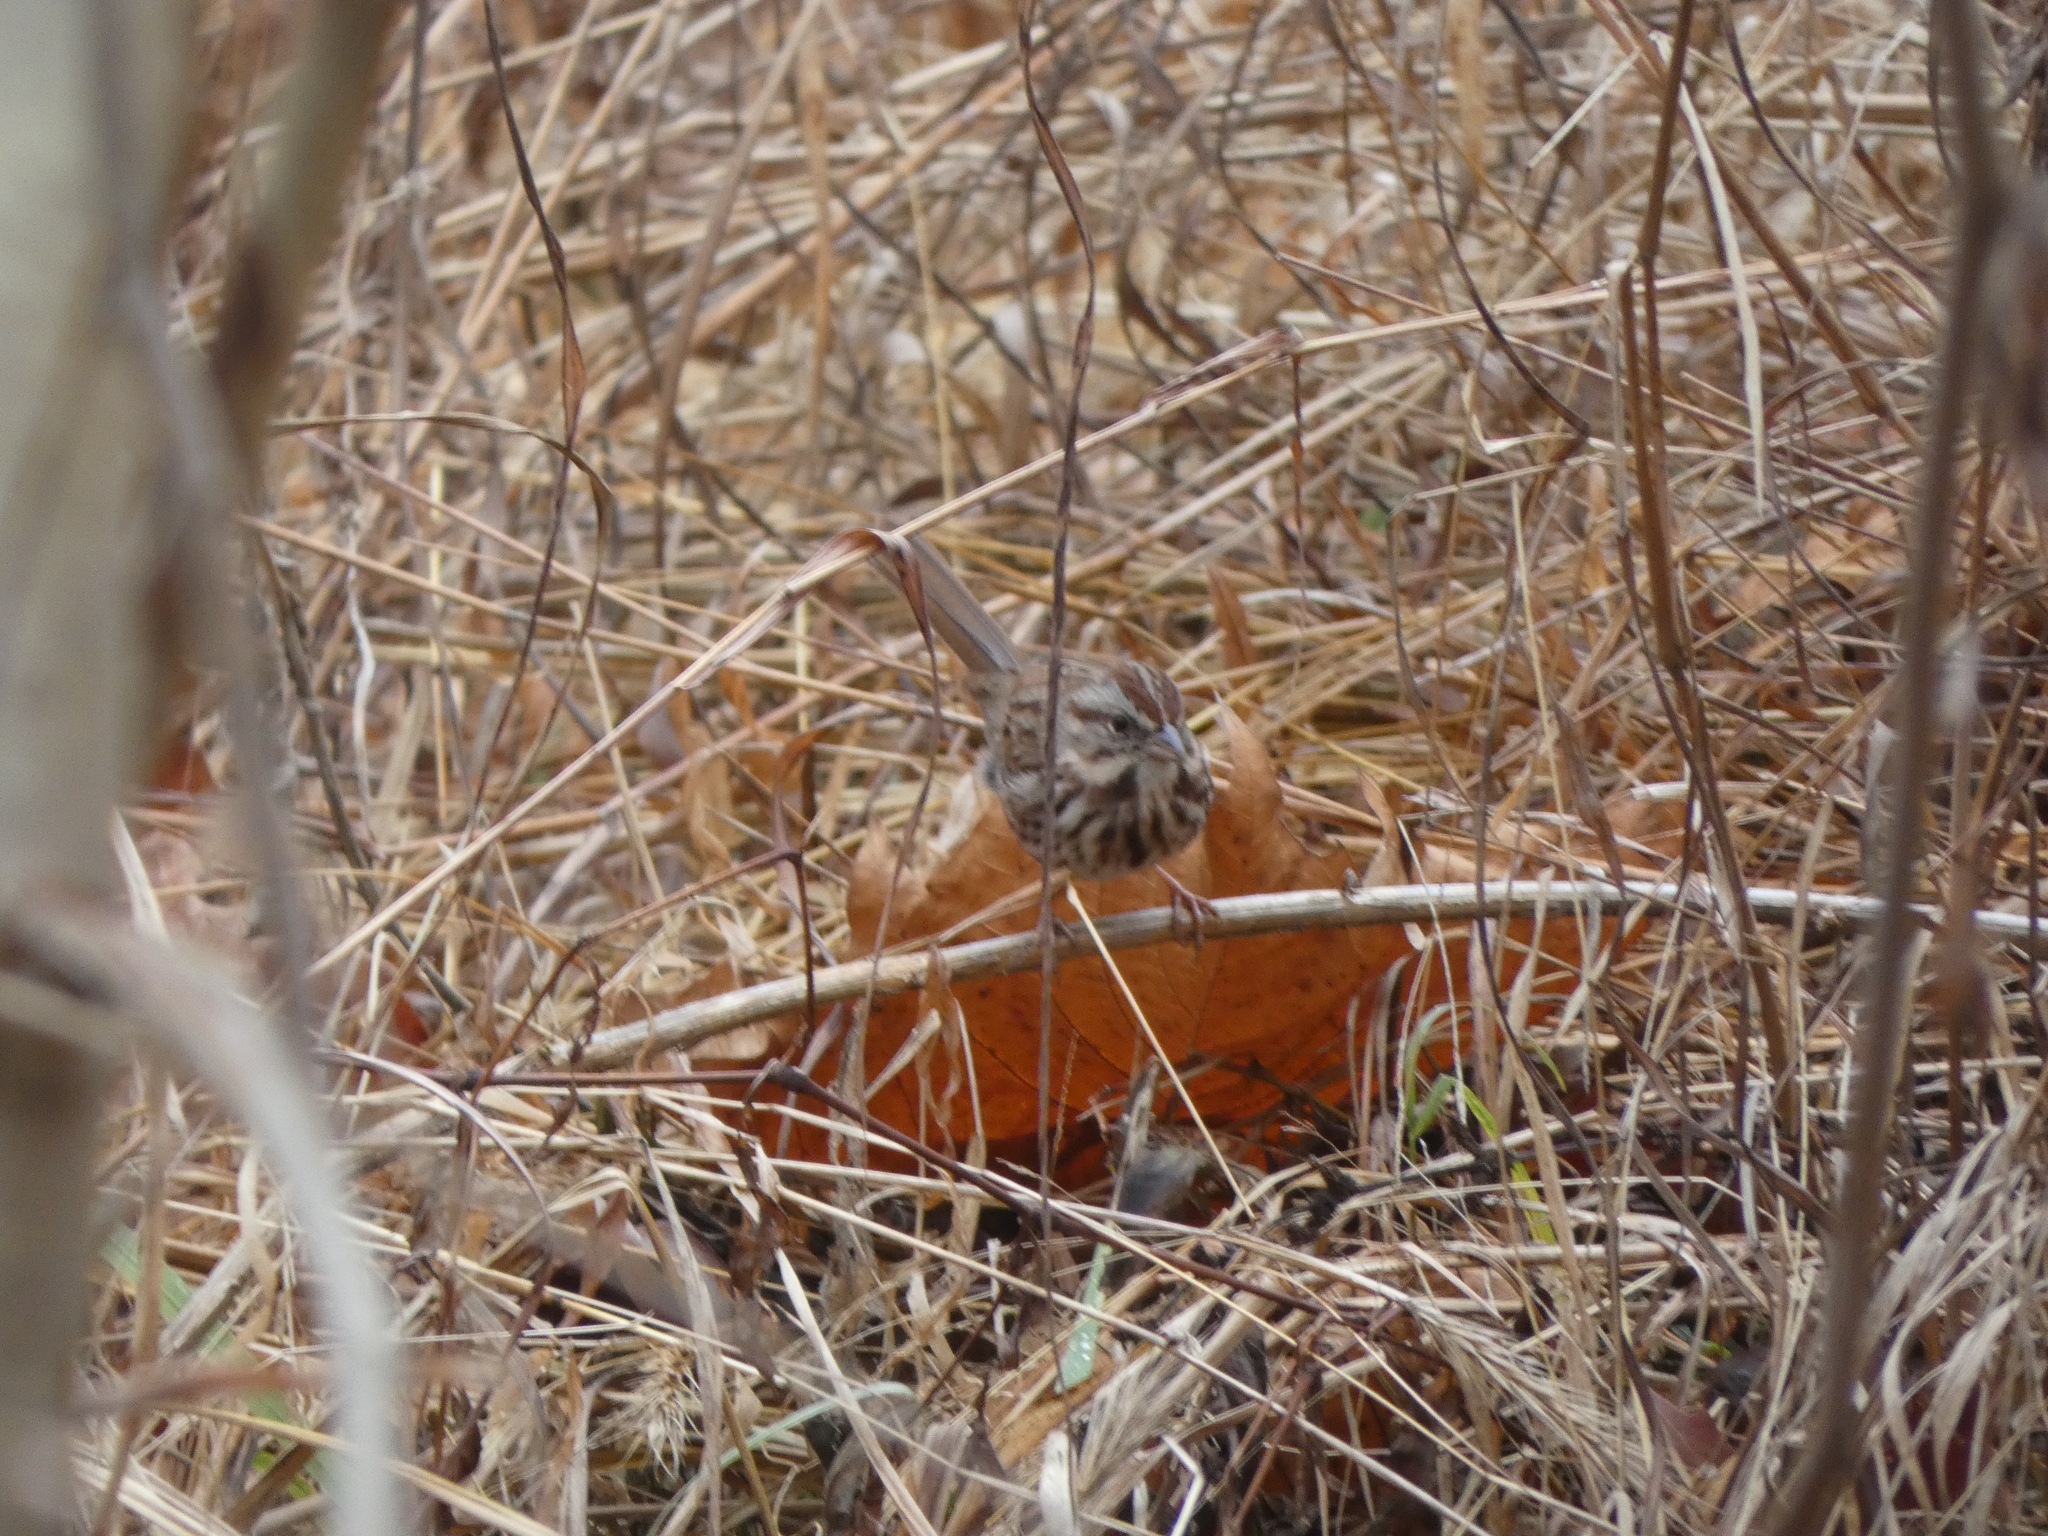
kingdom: Animalia
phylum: Chordata
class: Aves
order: Passeriformes
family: Passerellidae
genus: Melospiza
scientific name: Melospiza melodia
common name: Song sparrow
